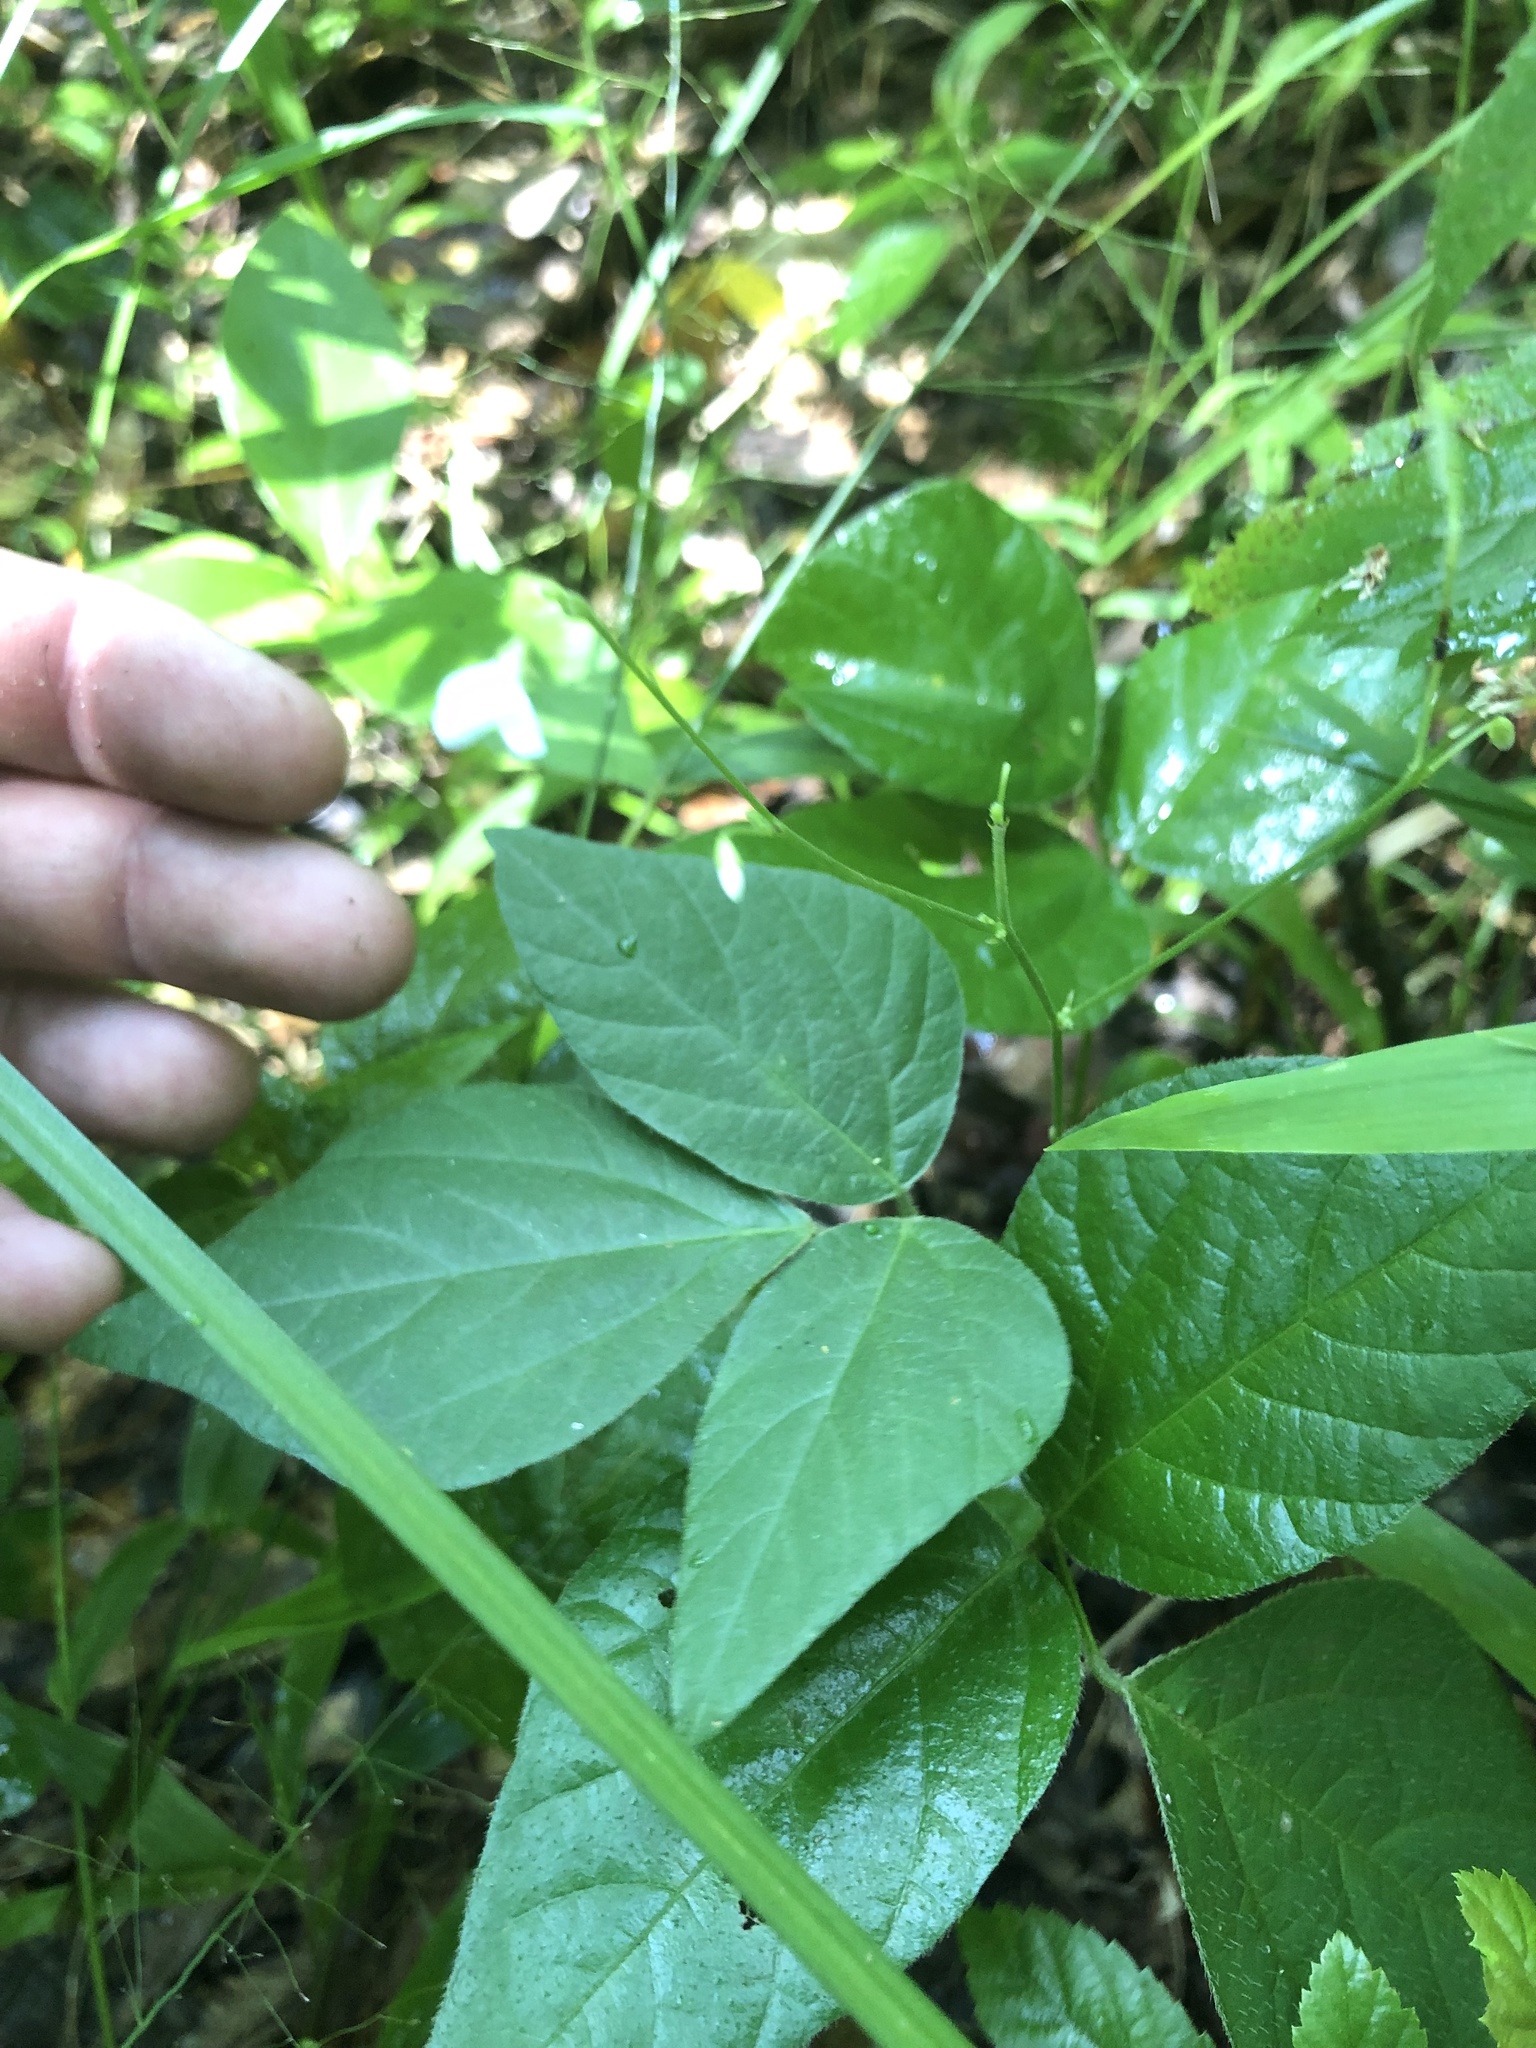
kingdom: Plantae
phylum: Tracheophyta
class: Magnoliopsida
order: Fabales
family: Fabaceae
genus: Hylodesmum
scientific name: Hylodesmum pauciflorum
